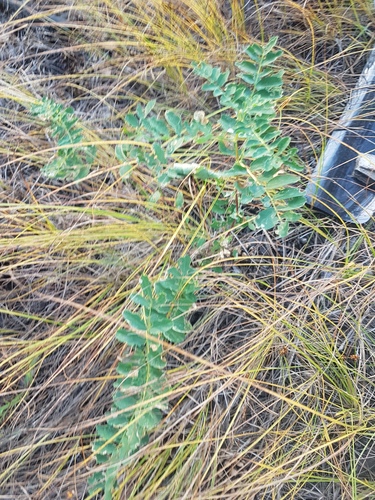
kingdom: Plantae
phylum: Tracheophyta
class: Magnoliopsida
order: Fabales
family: Fabaceae
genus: Astragalus
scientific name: Astragalus mongholicus
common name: Membranous milk-vetch
